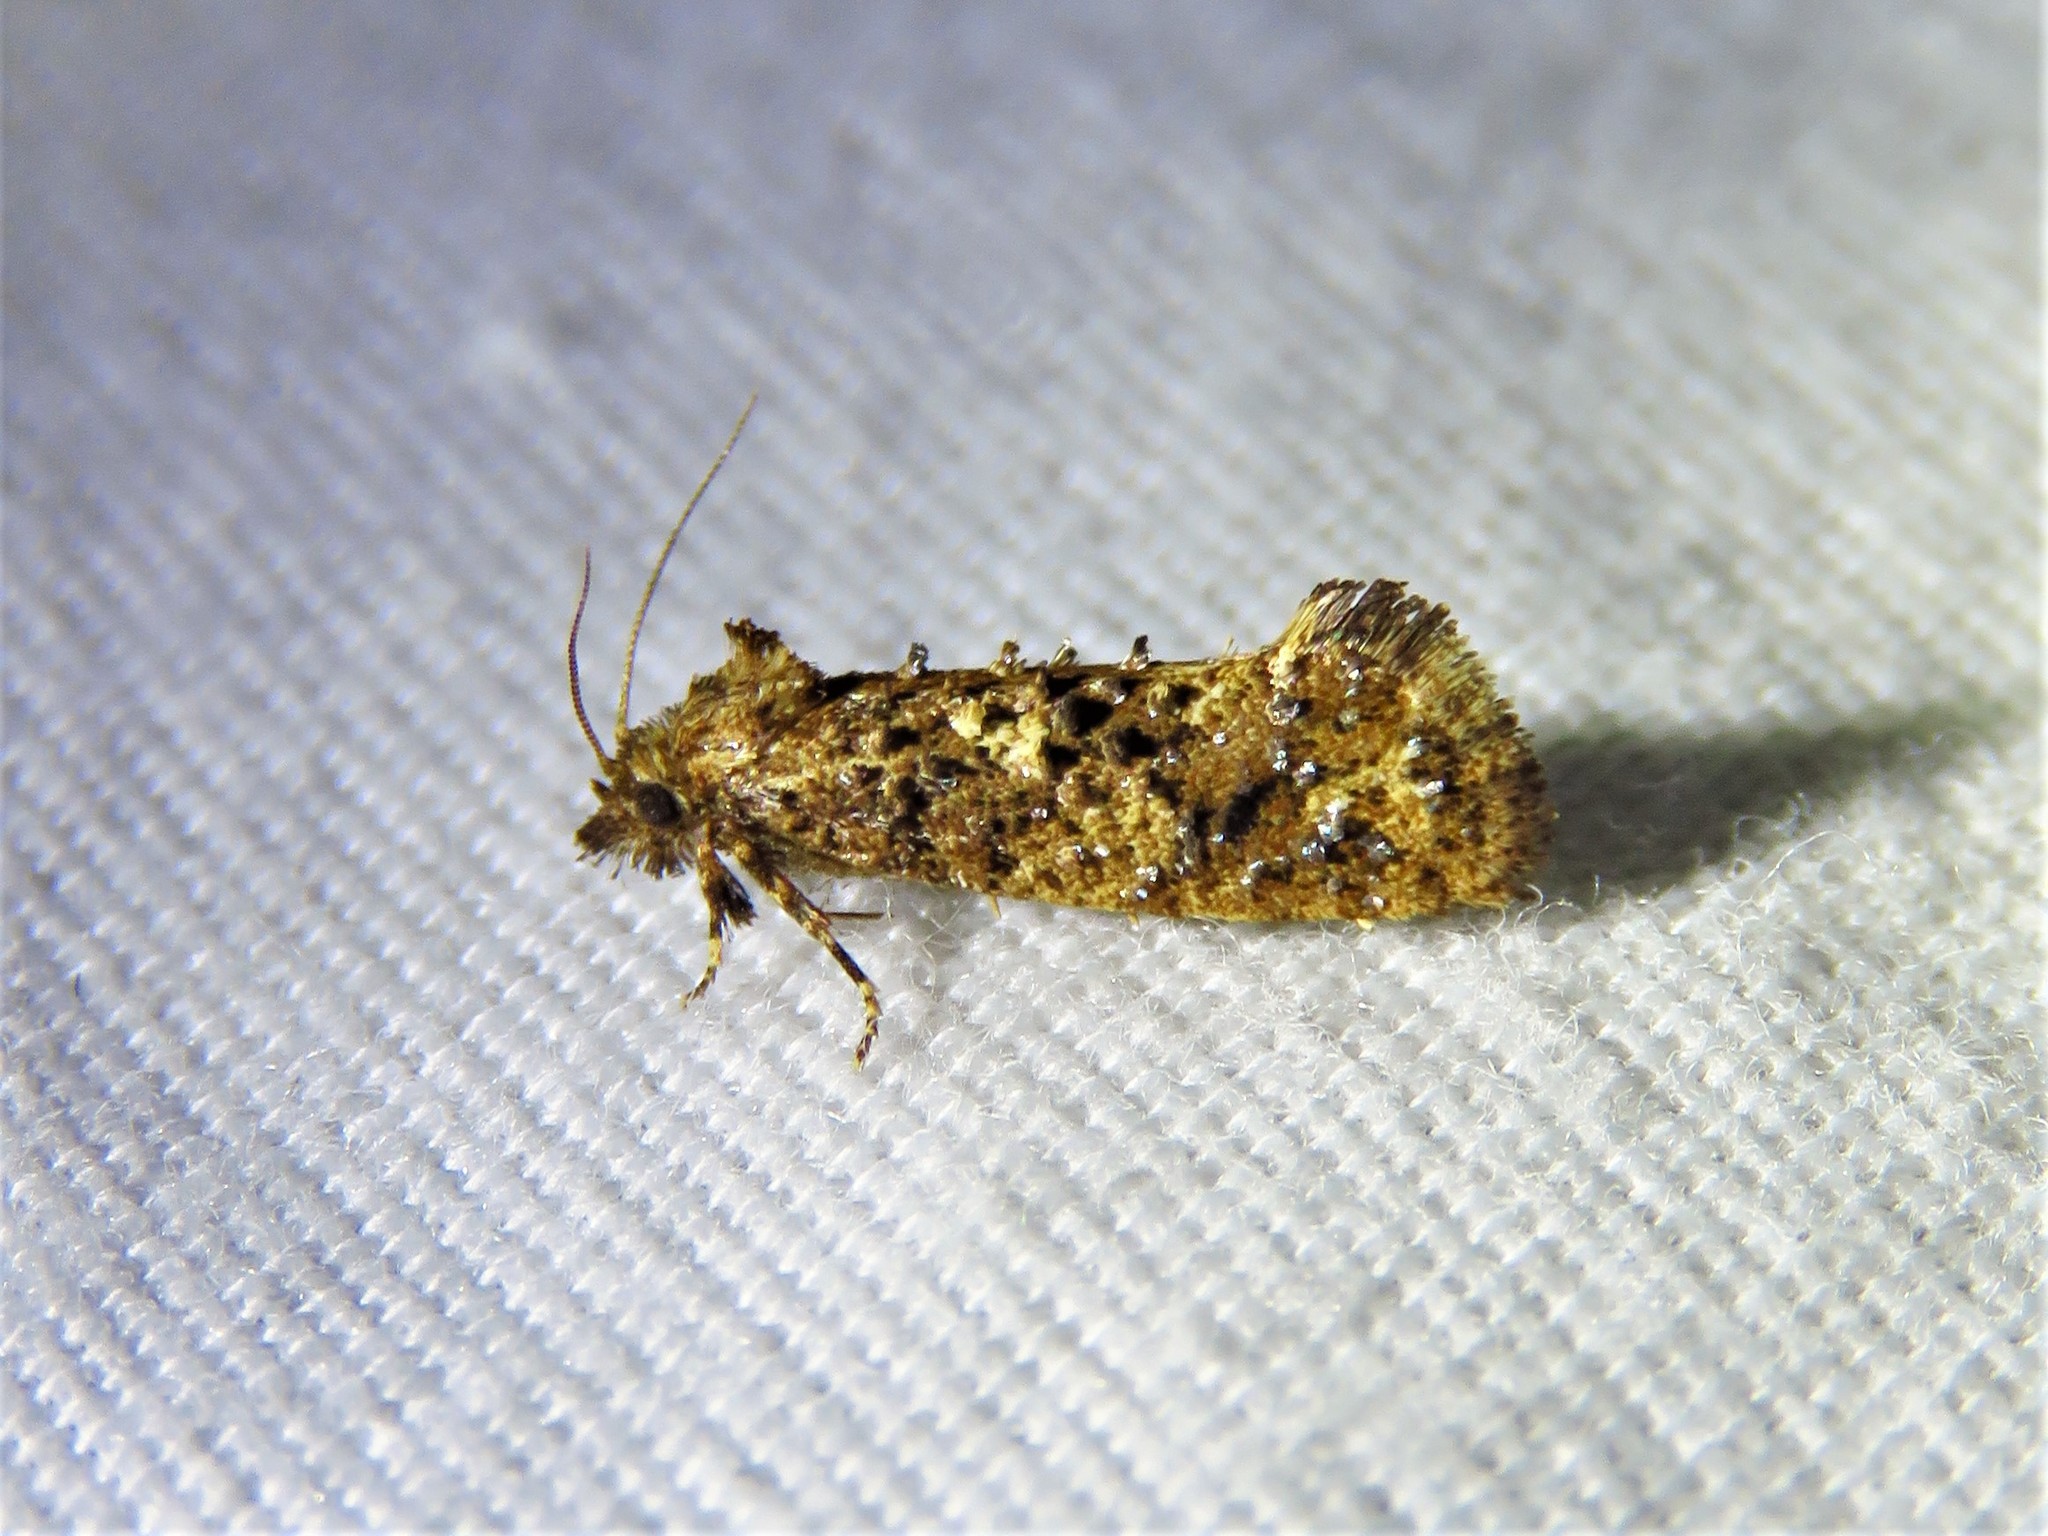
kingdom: Animalia
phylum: Arthropoda
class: Insecta
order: Lepidoptera
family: Tineidae
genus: Acrolophus
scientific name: Acrolophus cressoni
